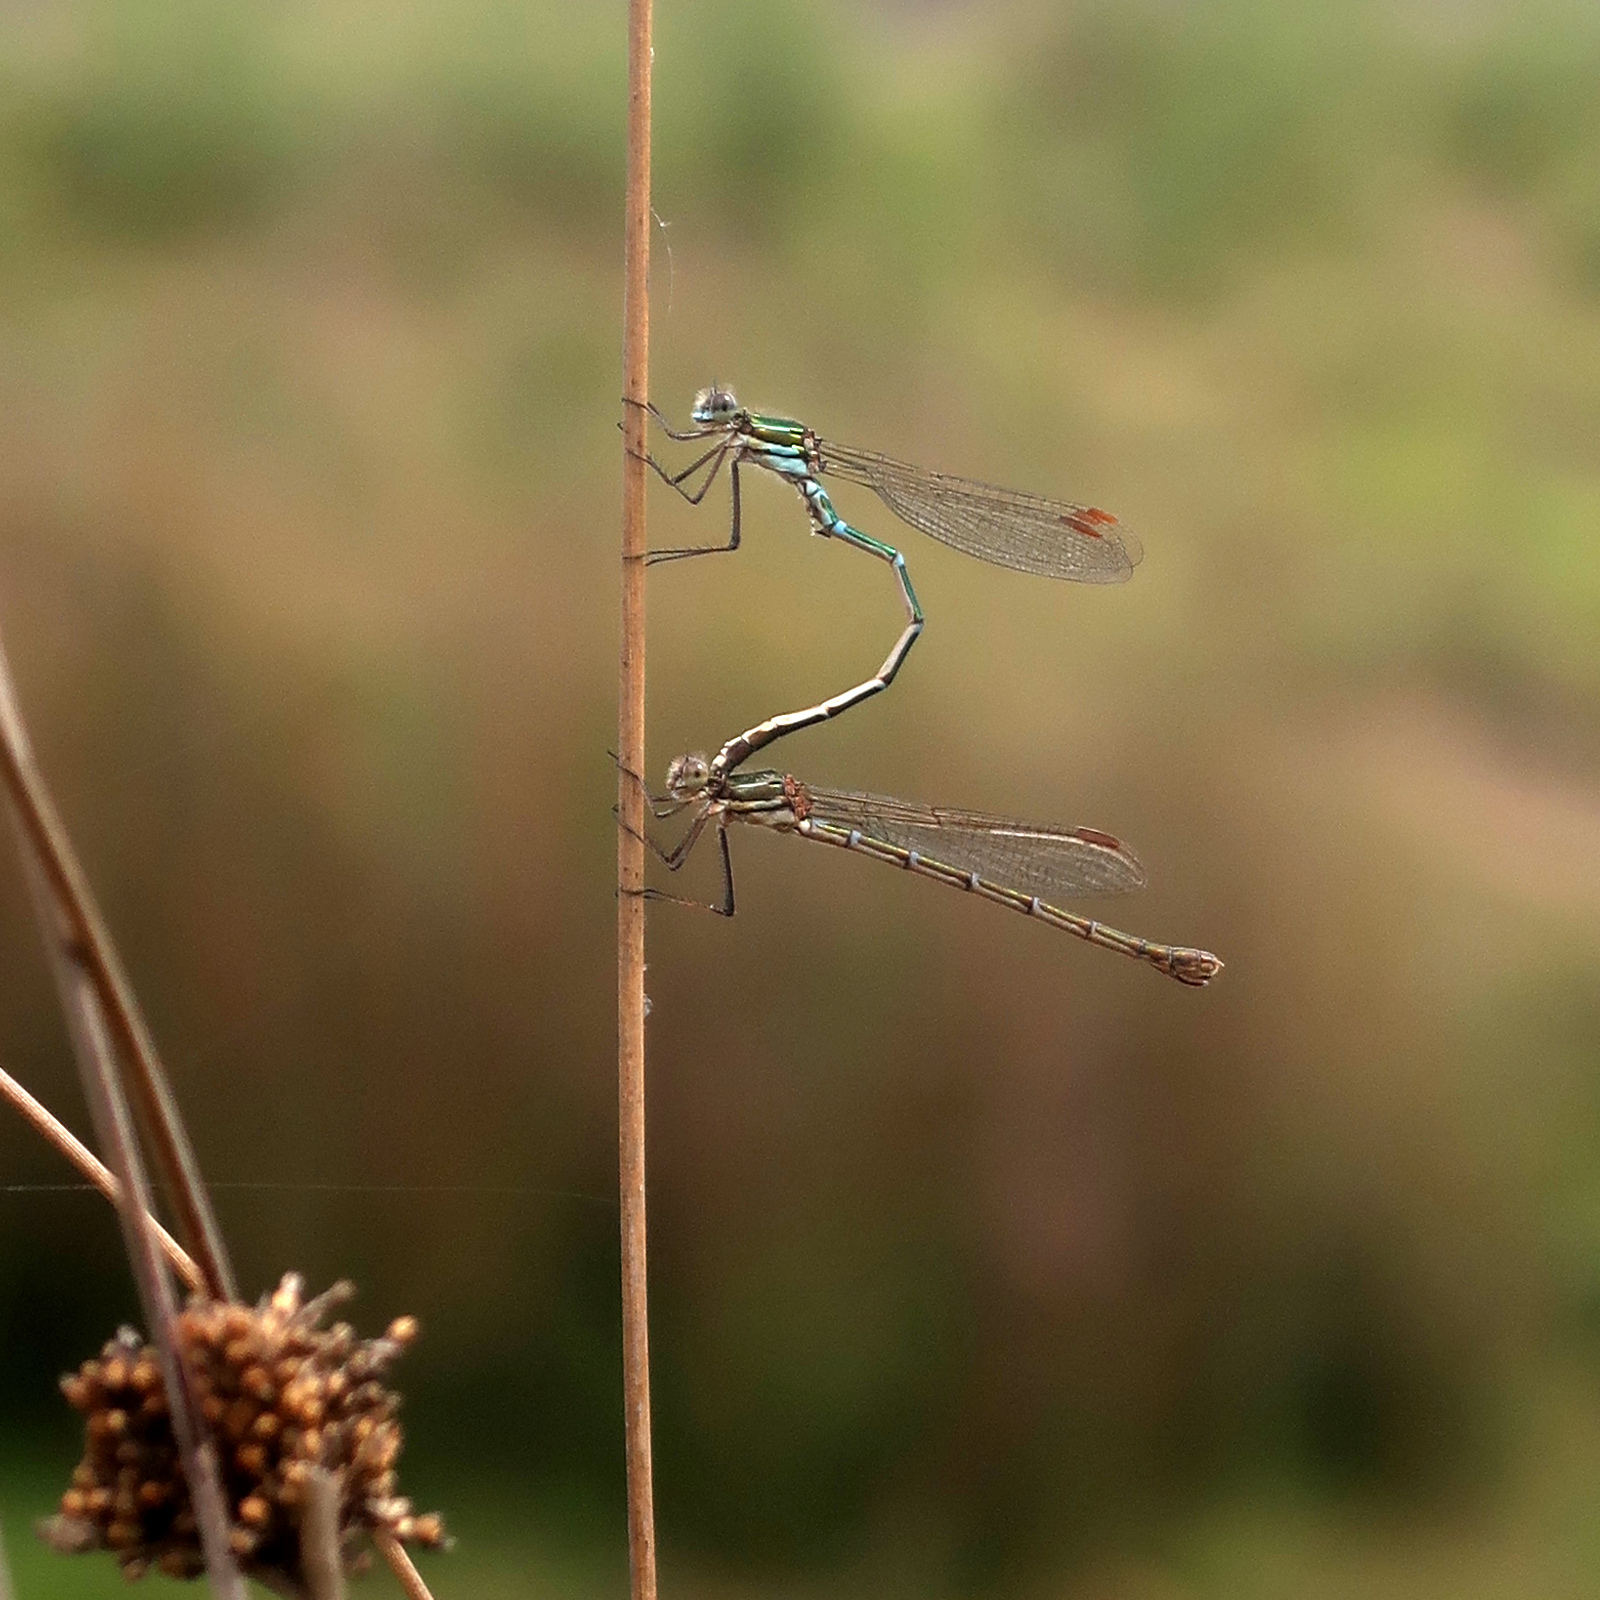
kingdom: Animalia
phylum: Arthropoda
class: Insecta
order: Odonata
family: Lestidae
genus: Austrolestes
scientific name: Austrolestes cingulatus
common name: Metallic ringtail
